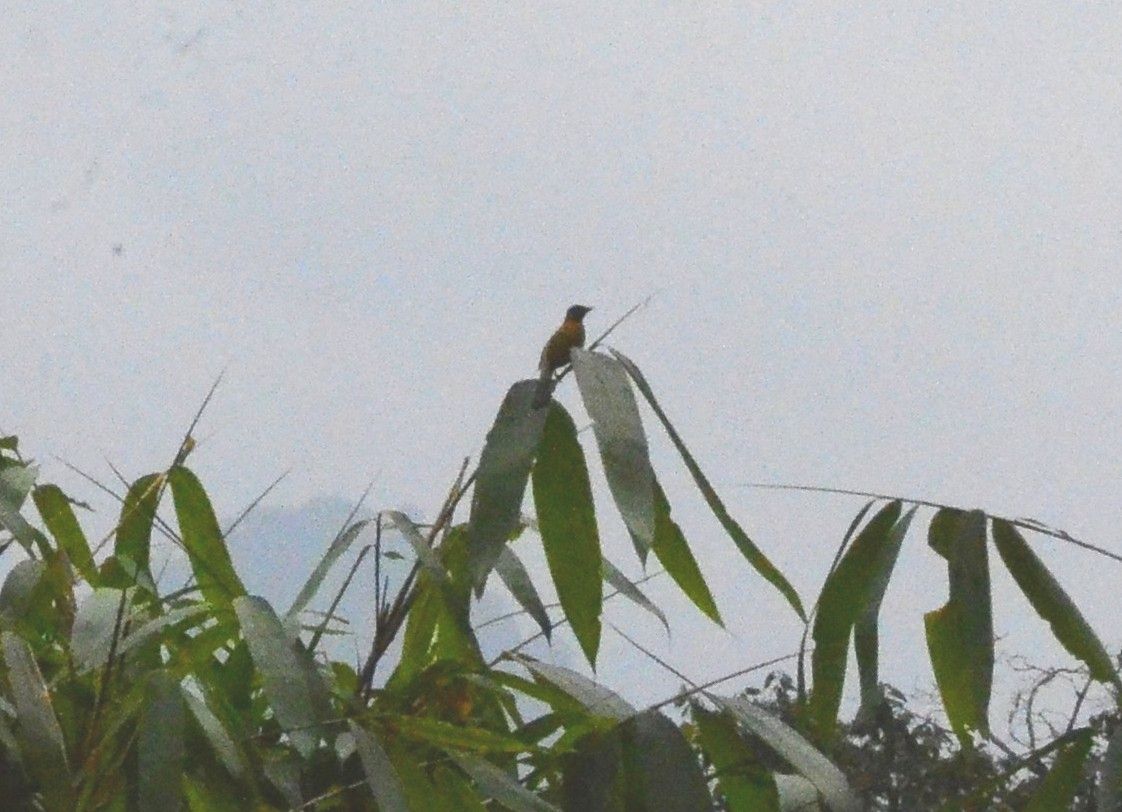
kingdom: Animalia
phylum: Chordata
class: Aves
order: Passeriformes
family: Pycnonotidae
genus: Microtarsus
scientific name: Microtarsus
